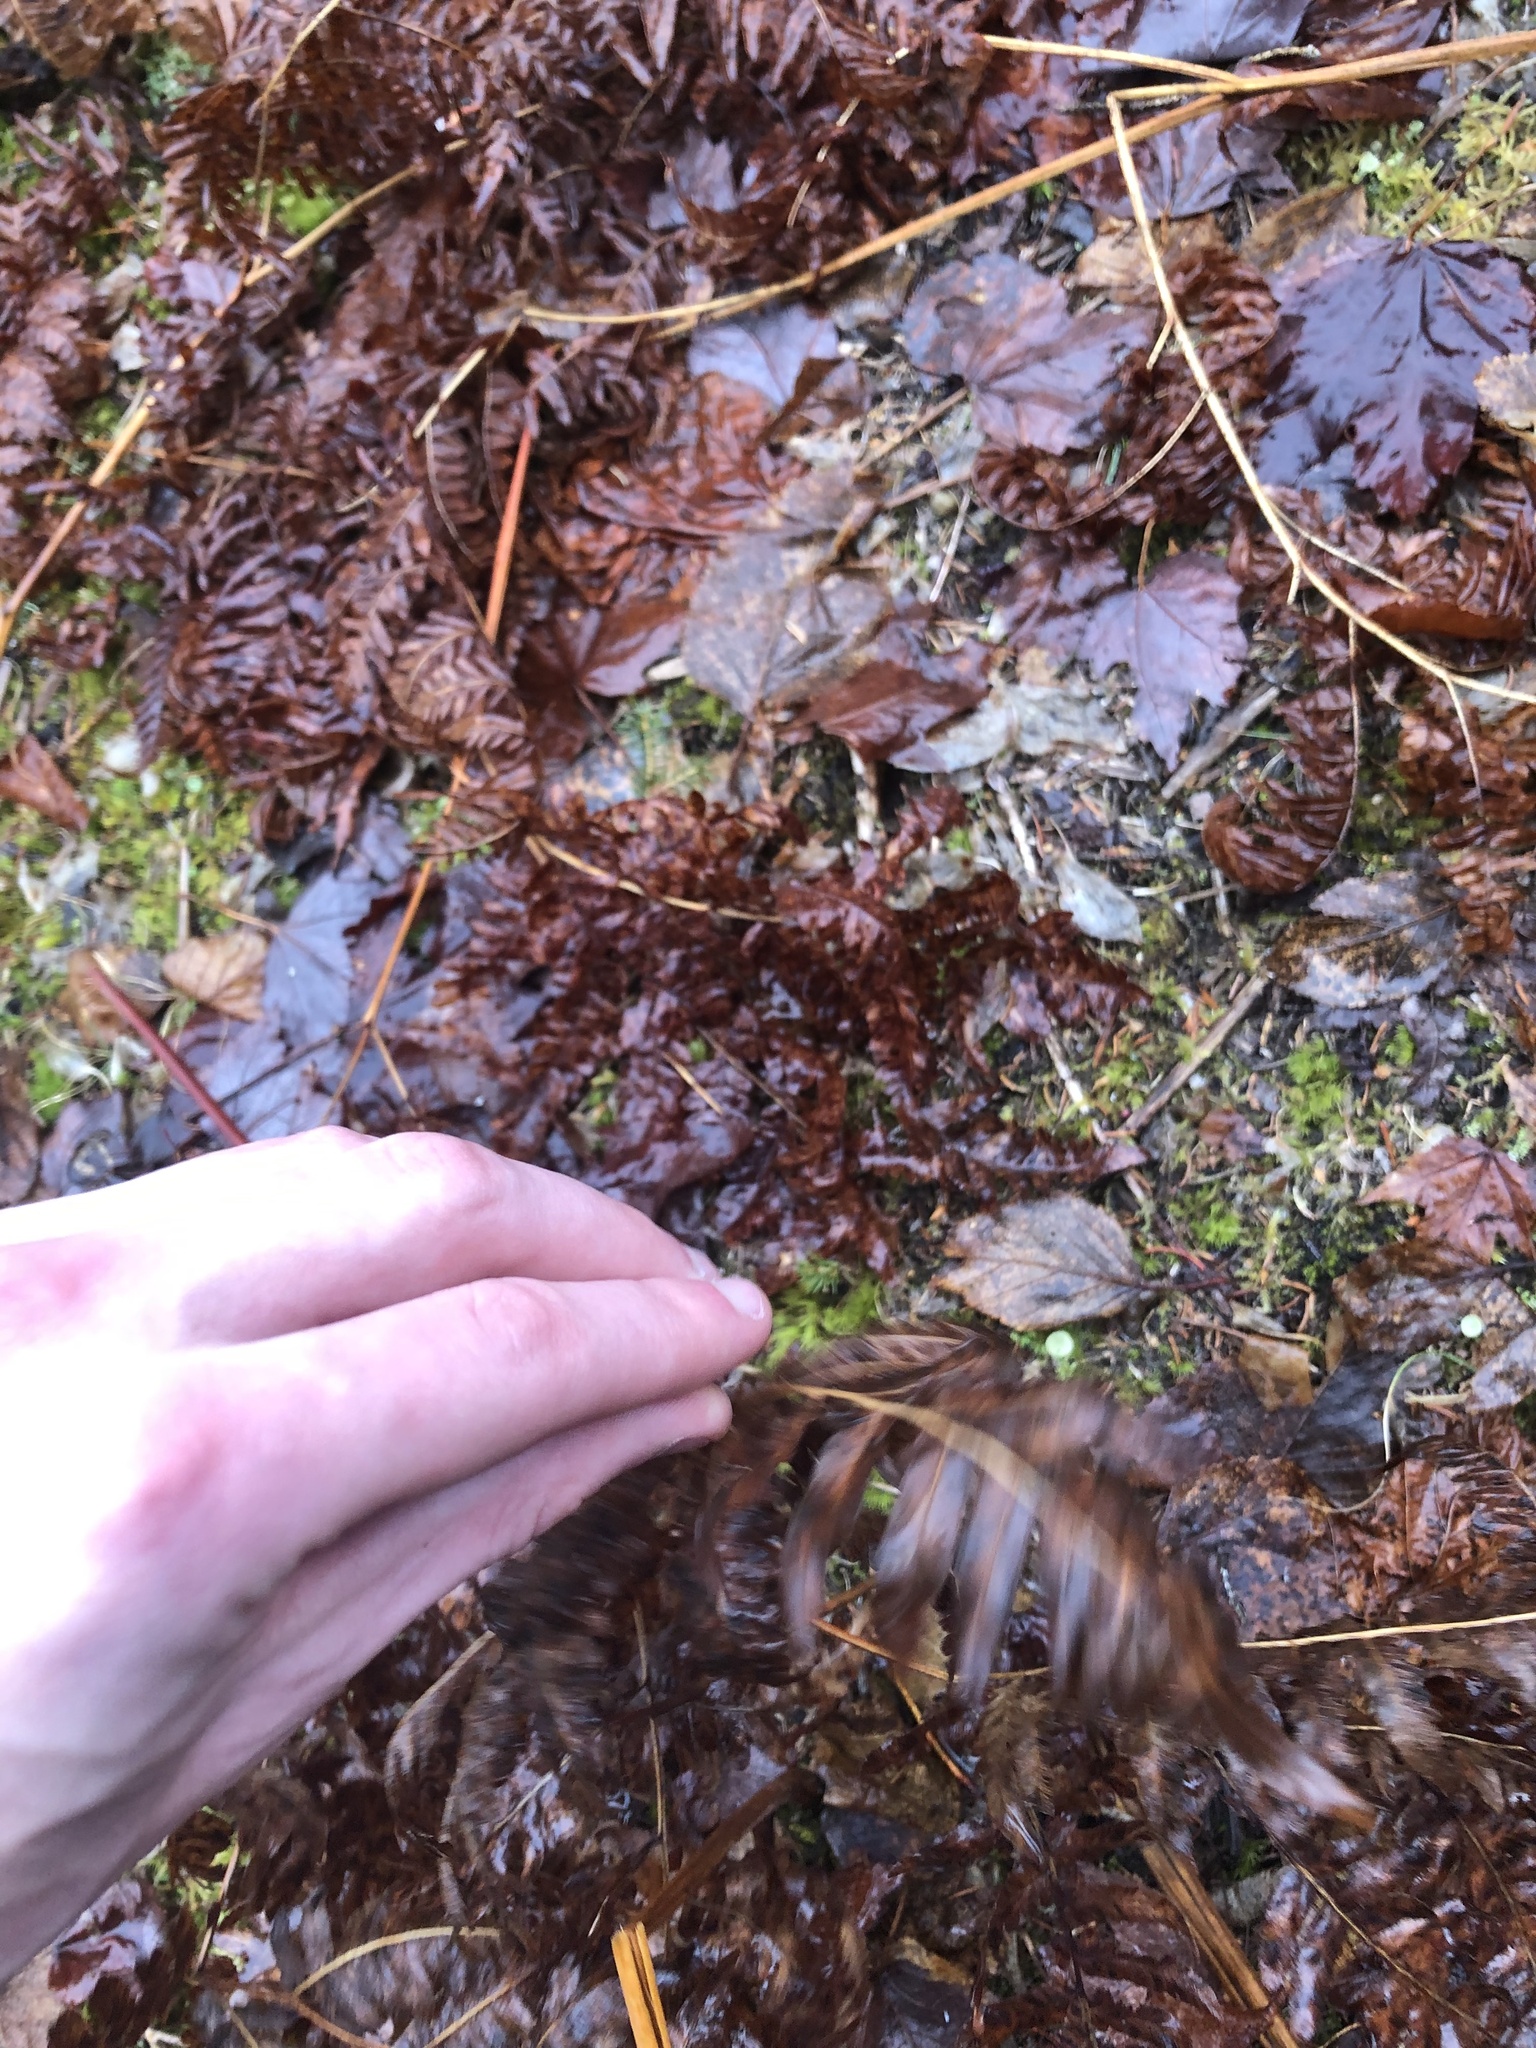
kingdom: Plantae
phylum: Tracheophyta
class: Polypodiopsida
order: Polypodiales
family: Dennstaedtiaceae
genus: Pteridium
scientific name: Pteridium aquilinum
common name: Bracken
